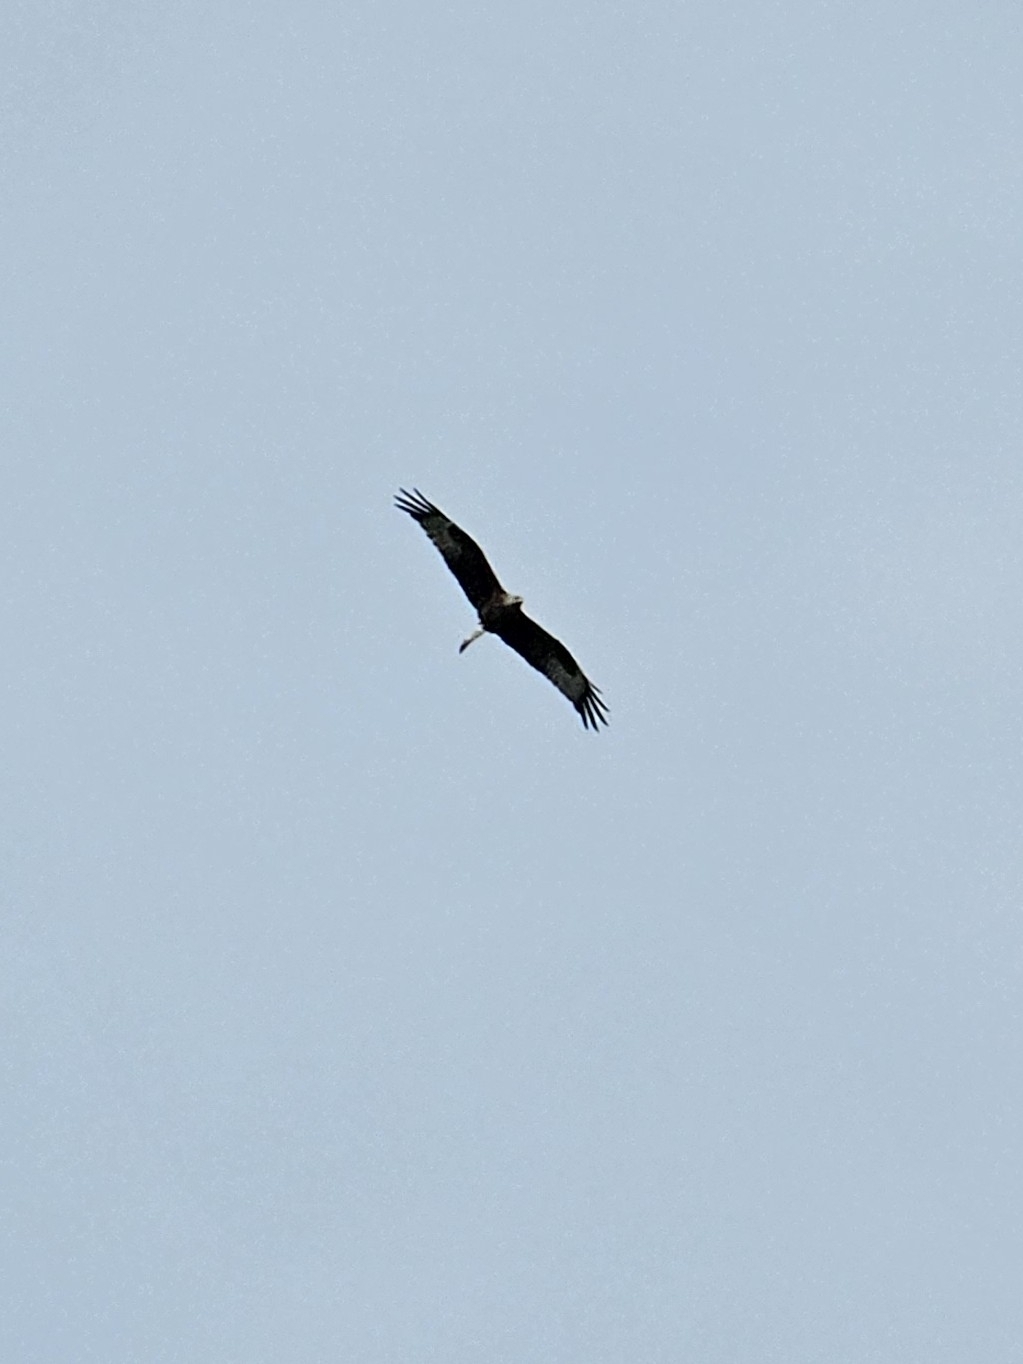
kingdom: Animalia
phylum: Chordata
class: Aves
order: Accipitriformes
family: Accipitridae
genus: Milvus
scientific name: Milvus milvus
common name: Red kite
